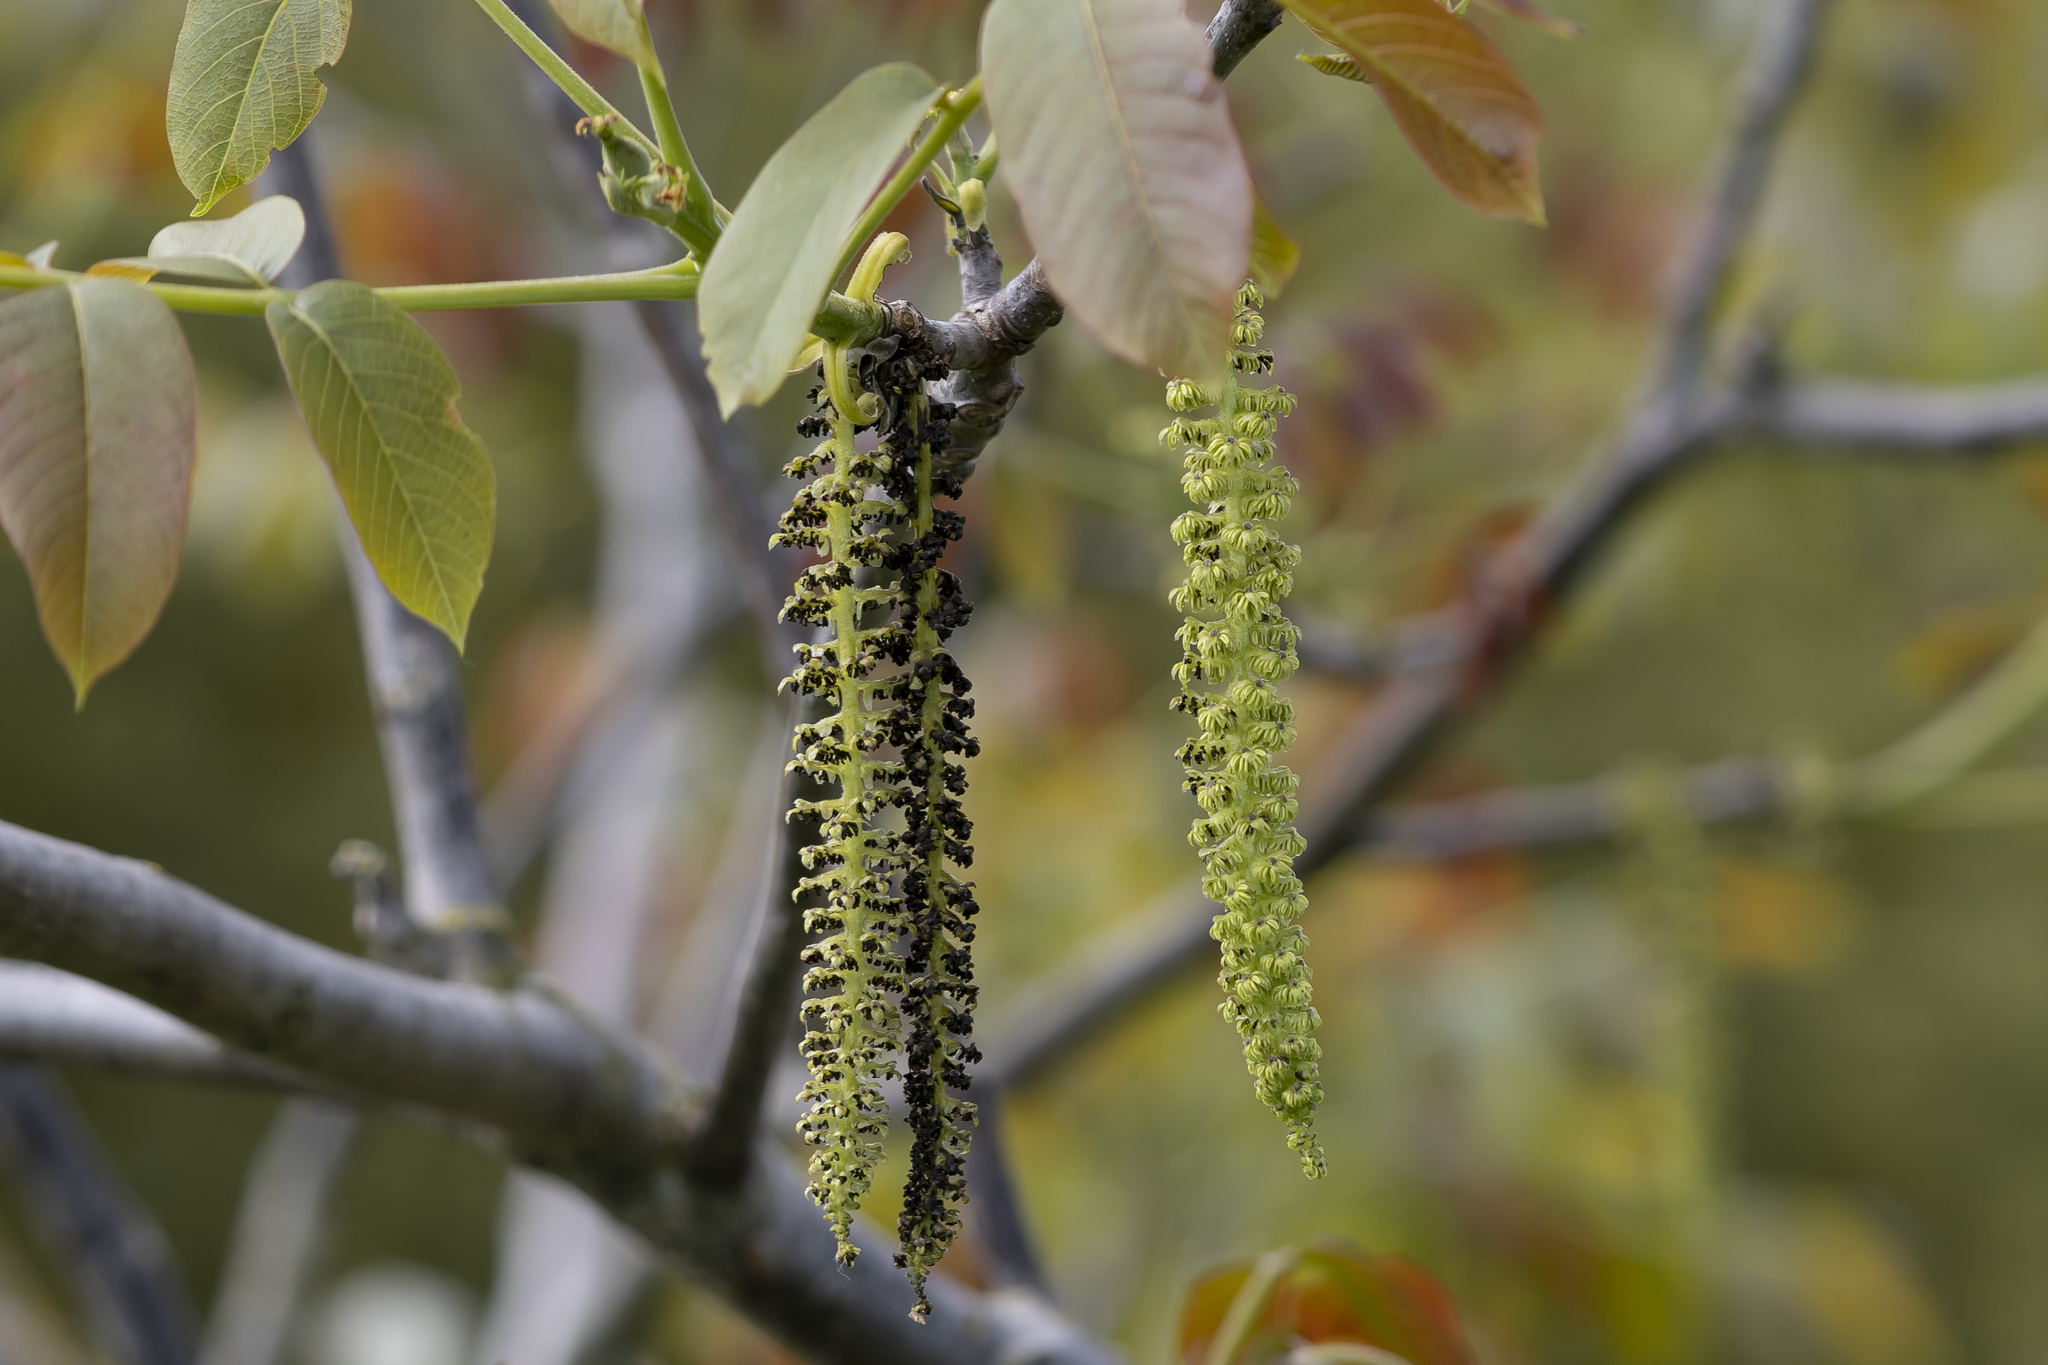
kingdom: Plantae
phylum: Tracheophyta
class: Magnoliopsida
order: Fagales
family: Juglandaceae
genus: Juglans
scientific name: Juglans regia
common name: Walnut
